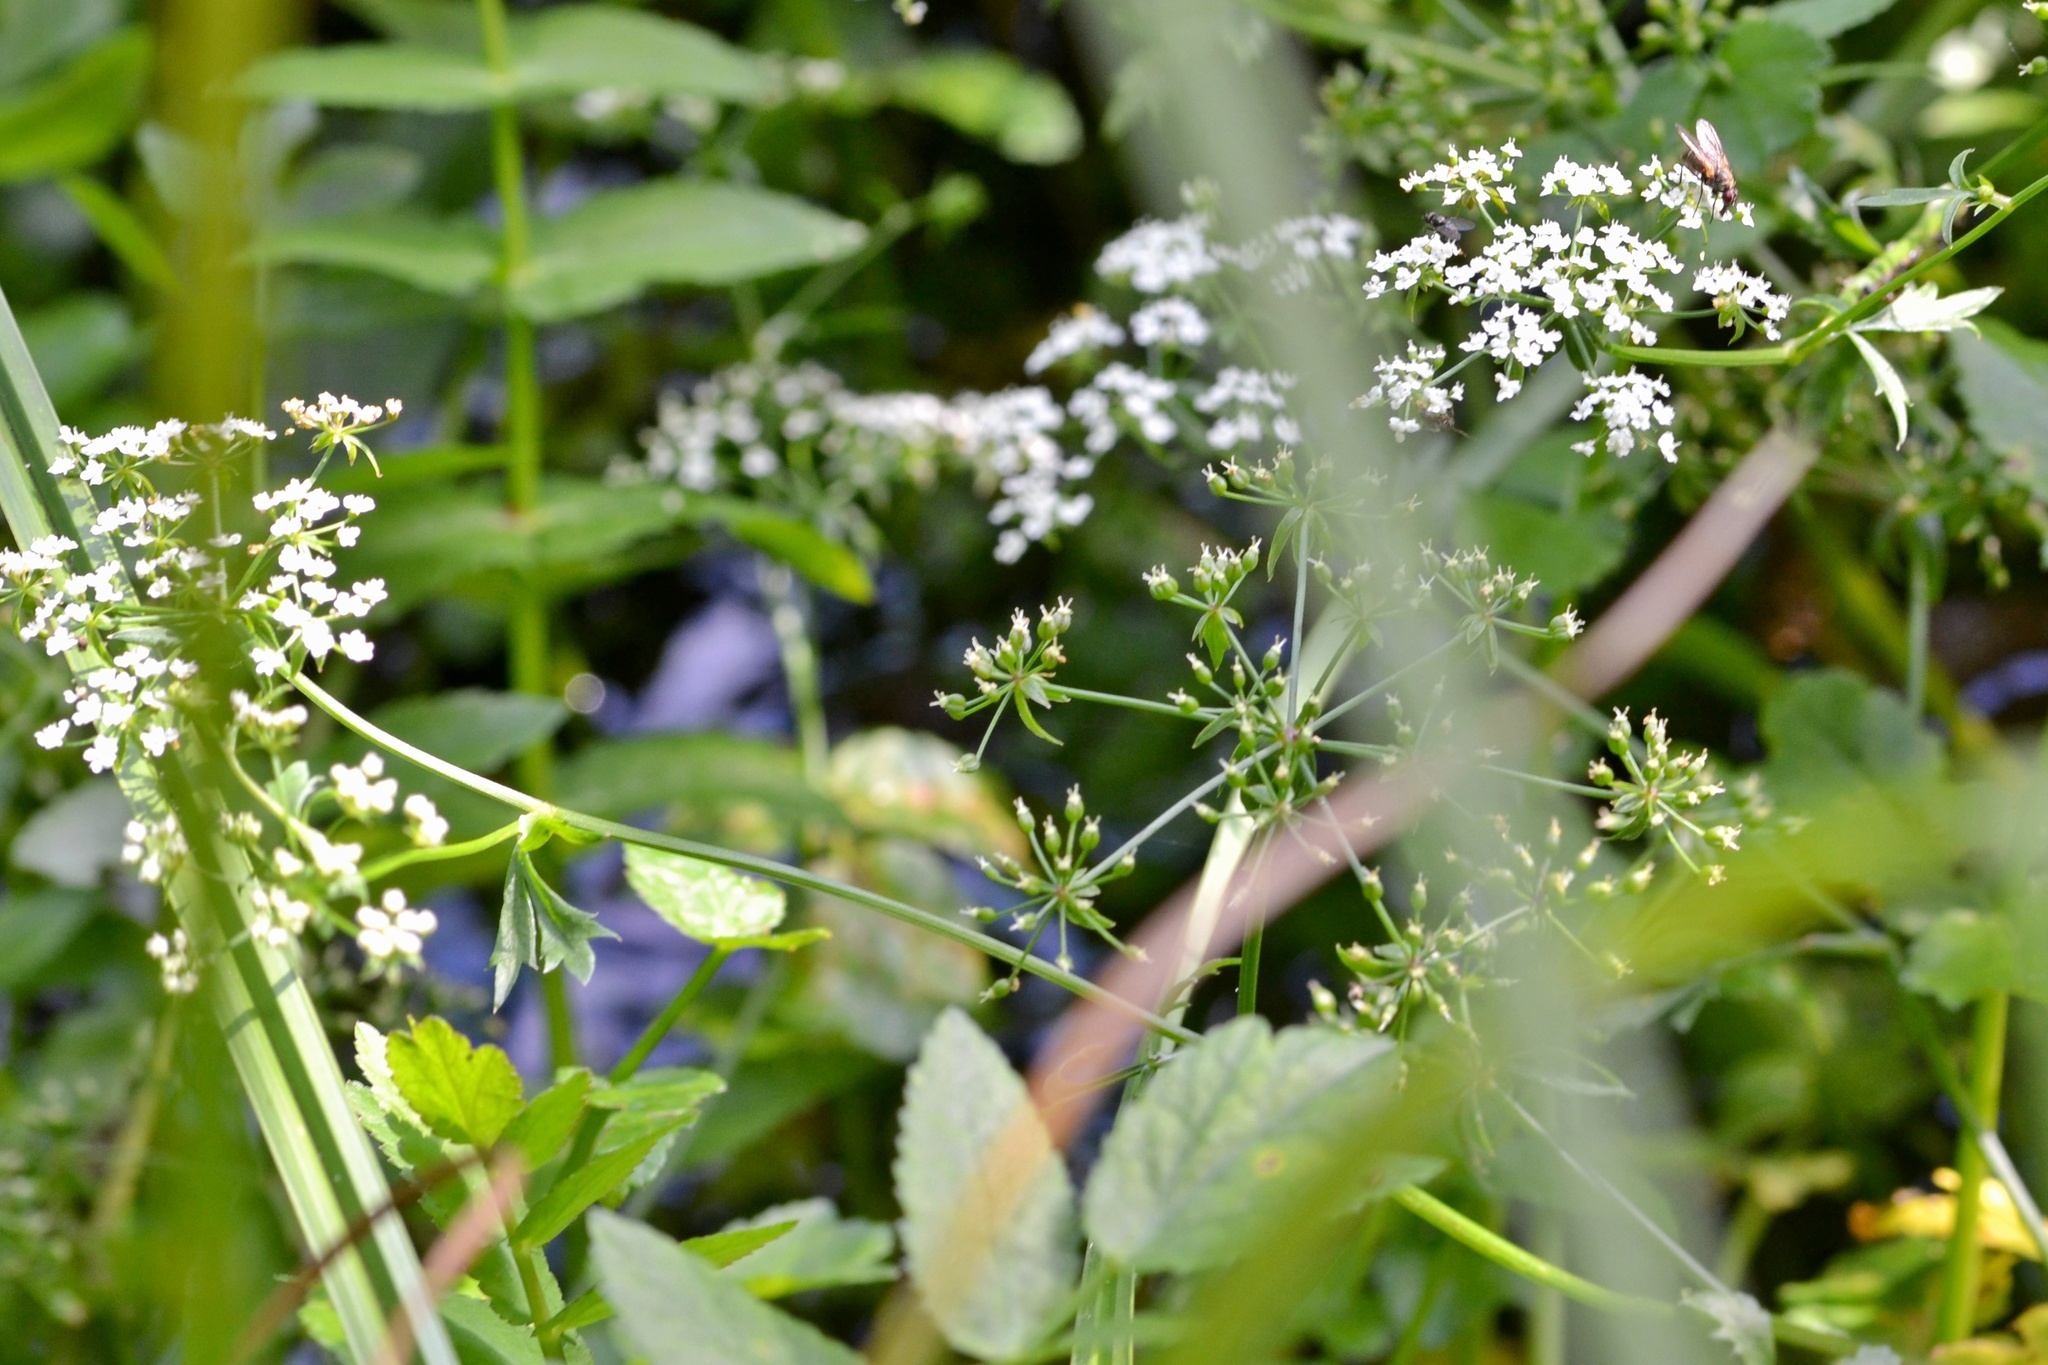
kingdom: Plantae
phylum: Tracheophyta
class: Magnoliopsida
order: Apiales
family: Apiaceae
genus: Berula
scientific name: Berula erecta
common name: Lesser water-parsnip
